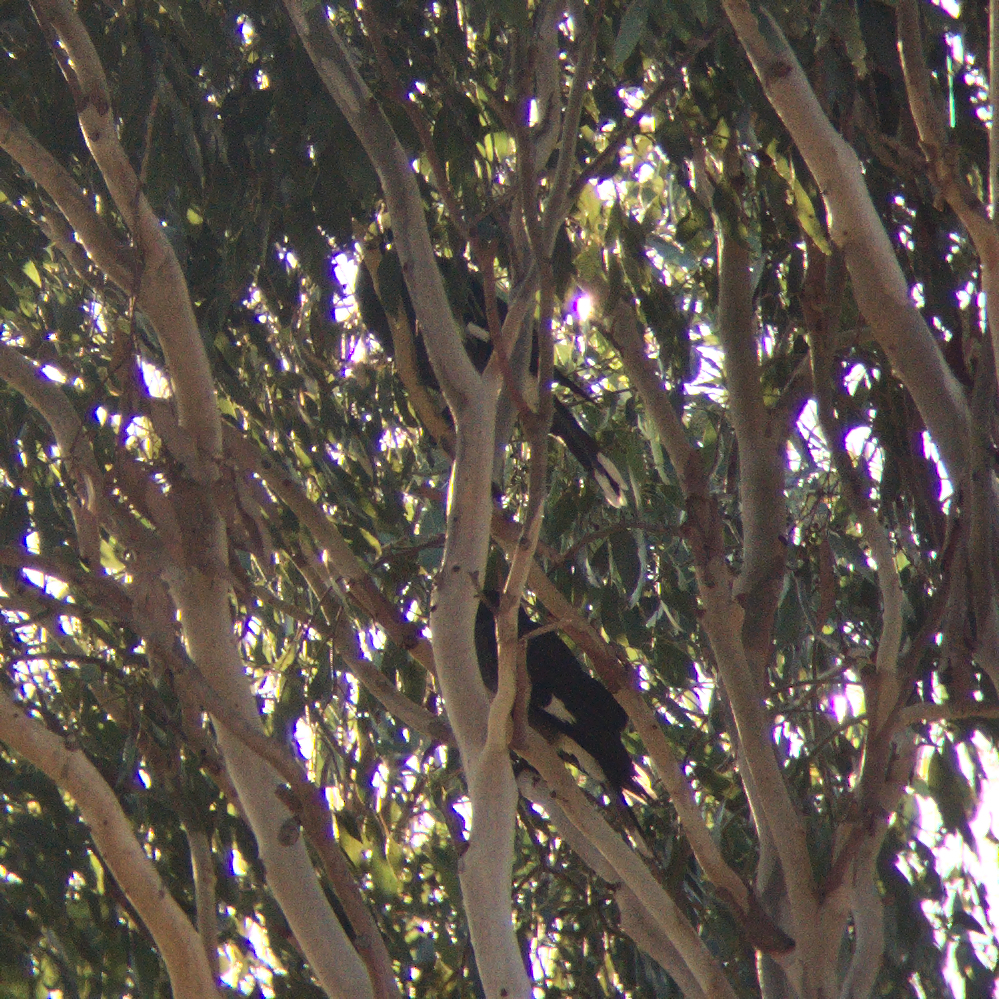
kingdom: Animalia
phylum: Chordata
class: Aves
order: Passeriformes
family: Cracticidae
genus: Strepera
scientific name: Strepera graculina
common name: Pied currawong
